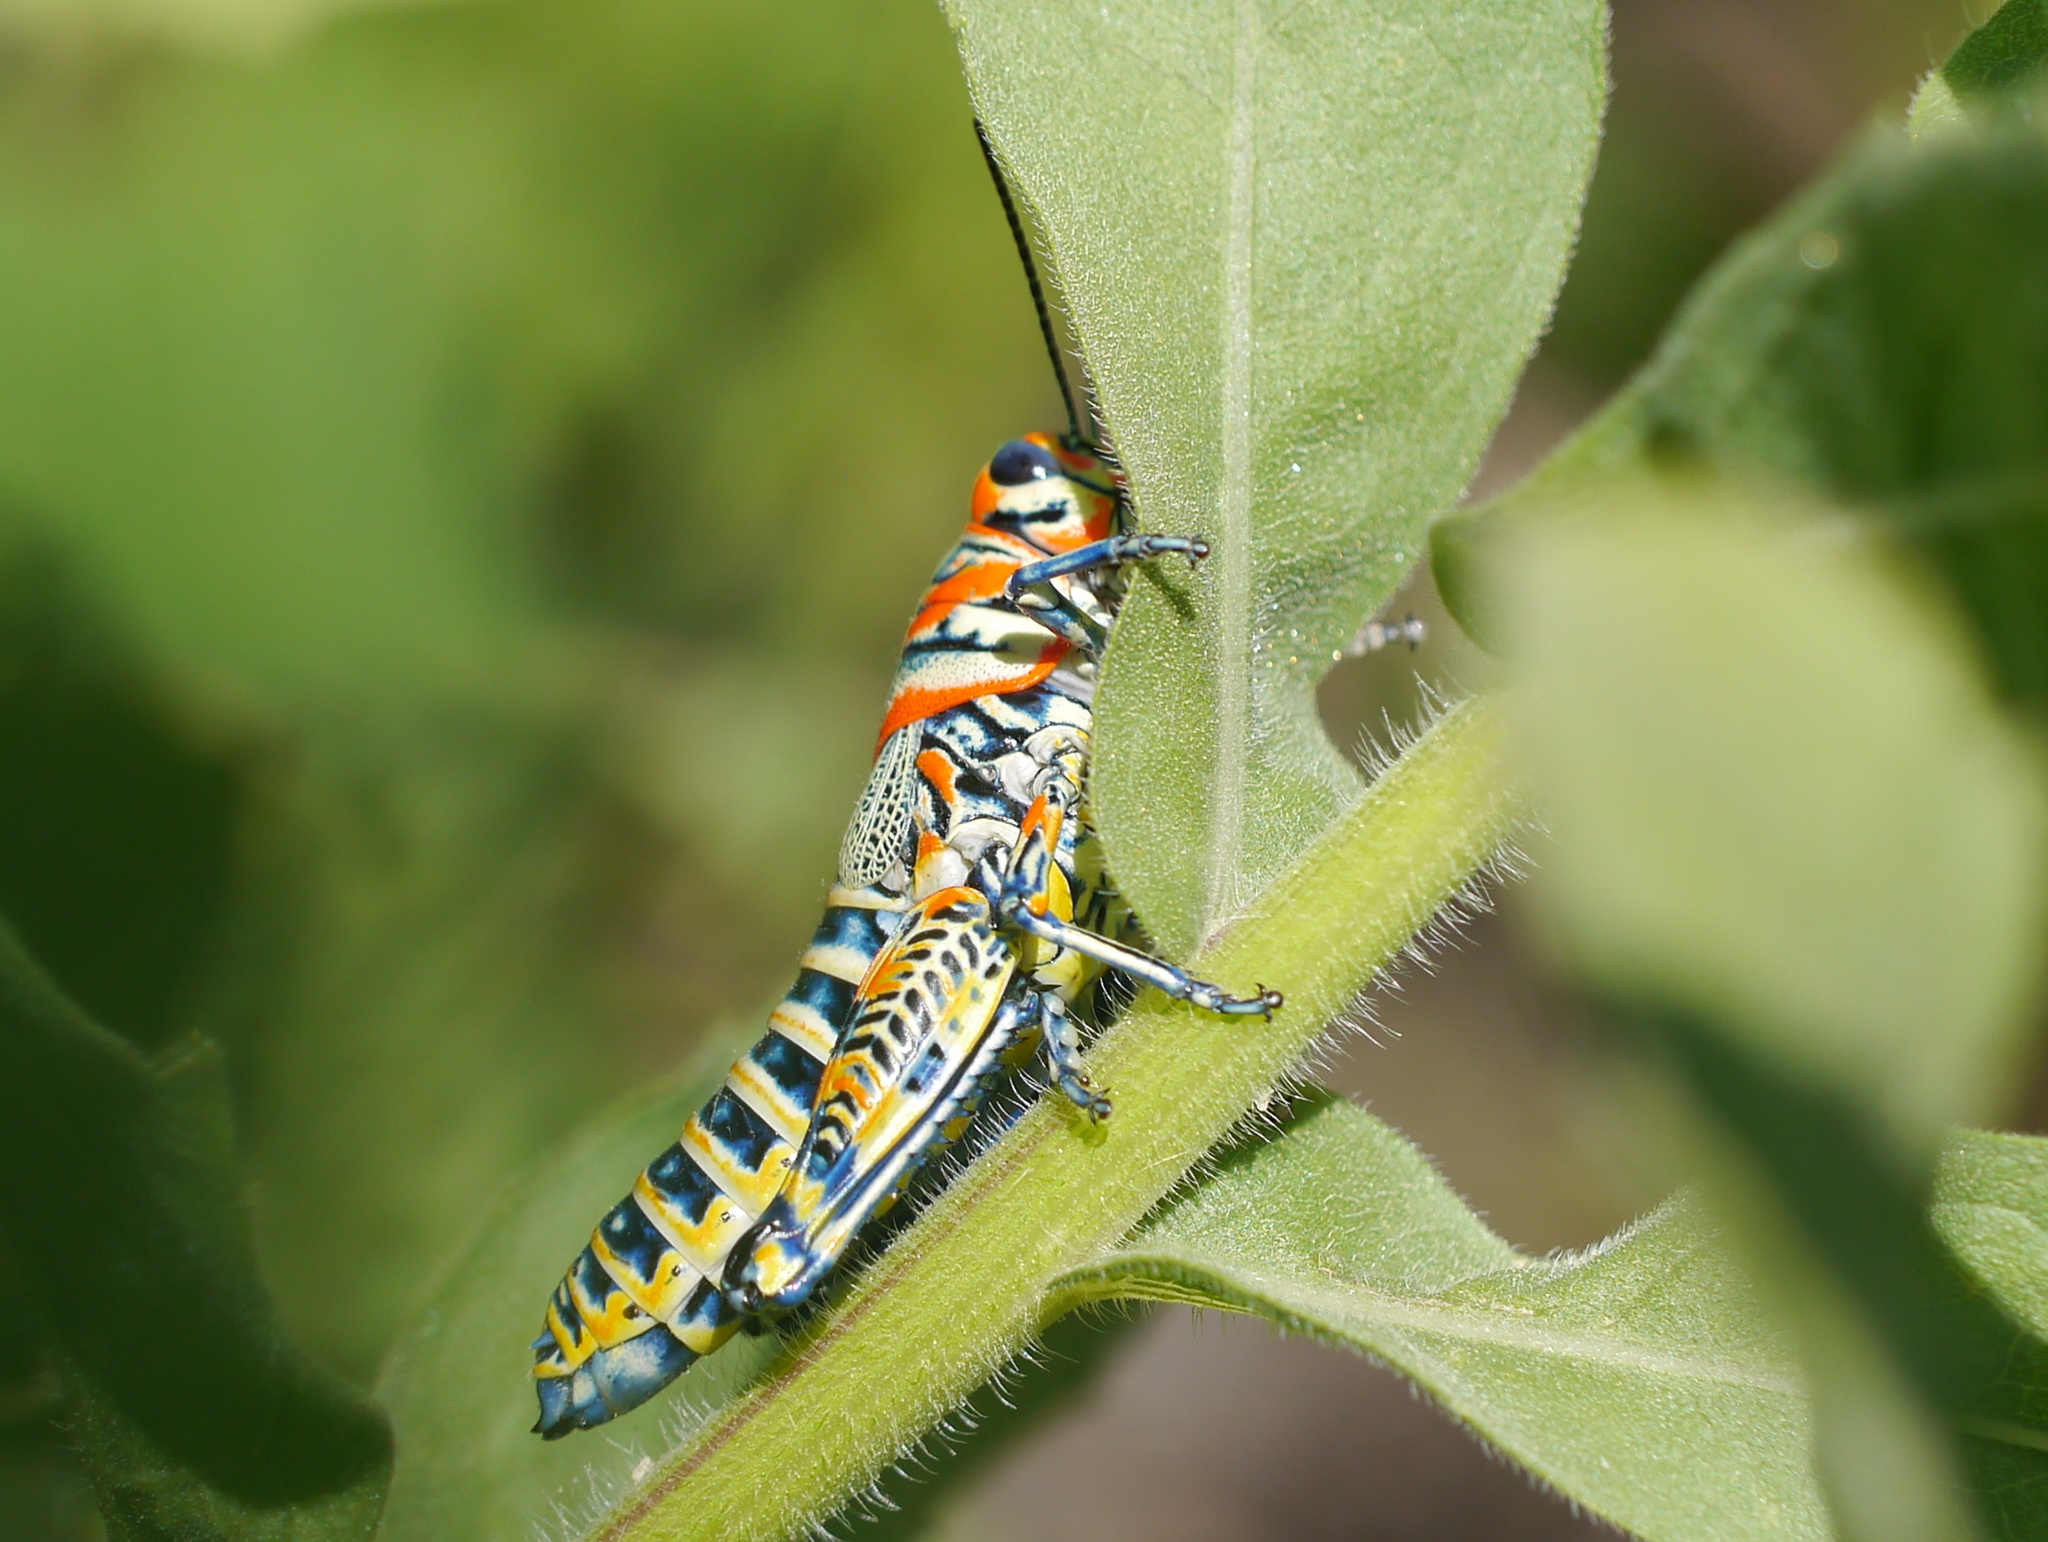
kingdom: Animalia
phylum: Arthropoda
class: Insecta
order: Orthoptera
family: Acrididae
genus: Dactylotum
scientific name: Dactylotum bicolor
